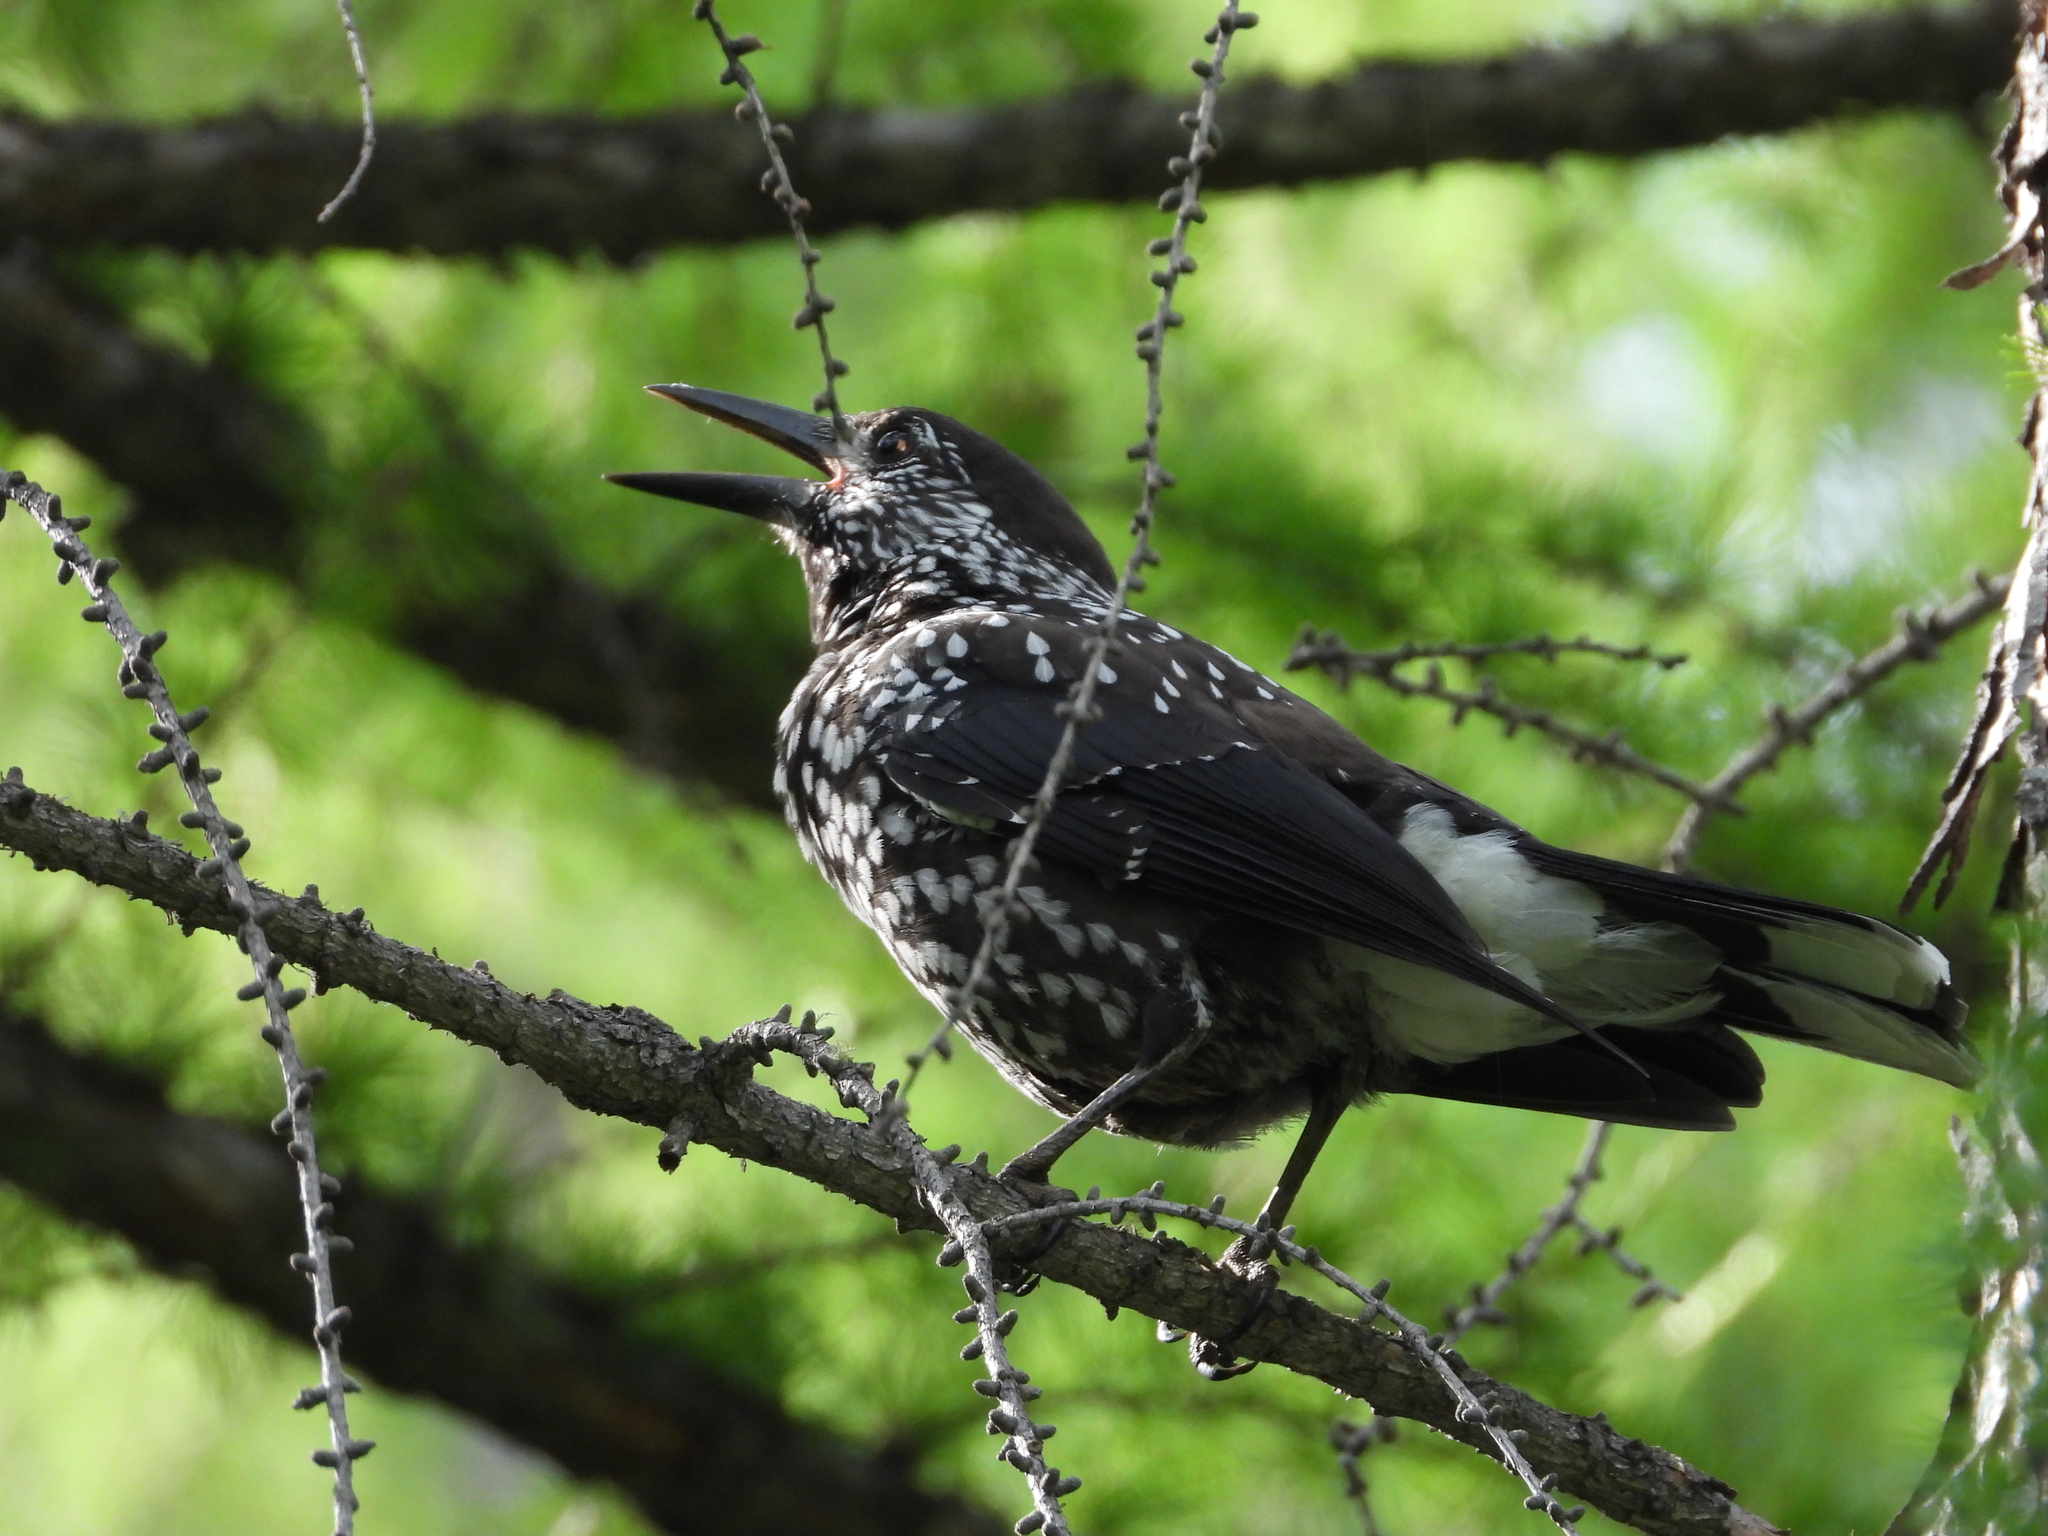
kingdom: Animalia
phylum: Chordata
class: Aves
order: Passeriformes
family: Corvidae
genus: Nucifraga
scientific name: Nucifraga caryocatactes
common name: Spotted nutcracker
